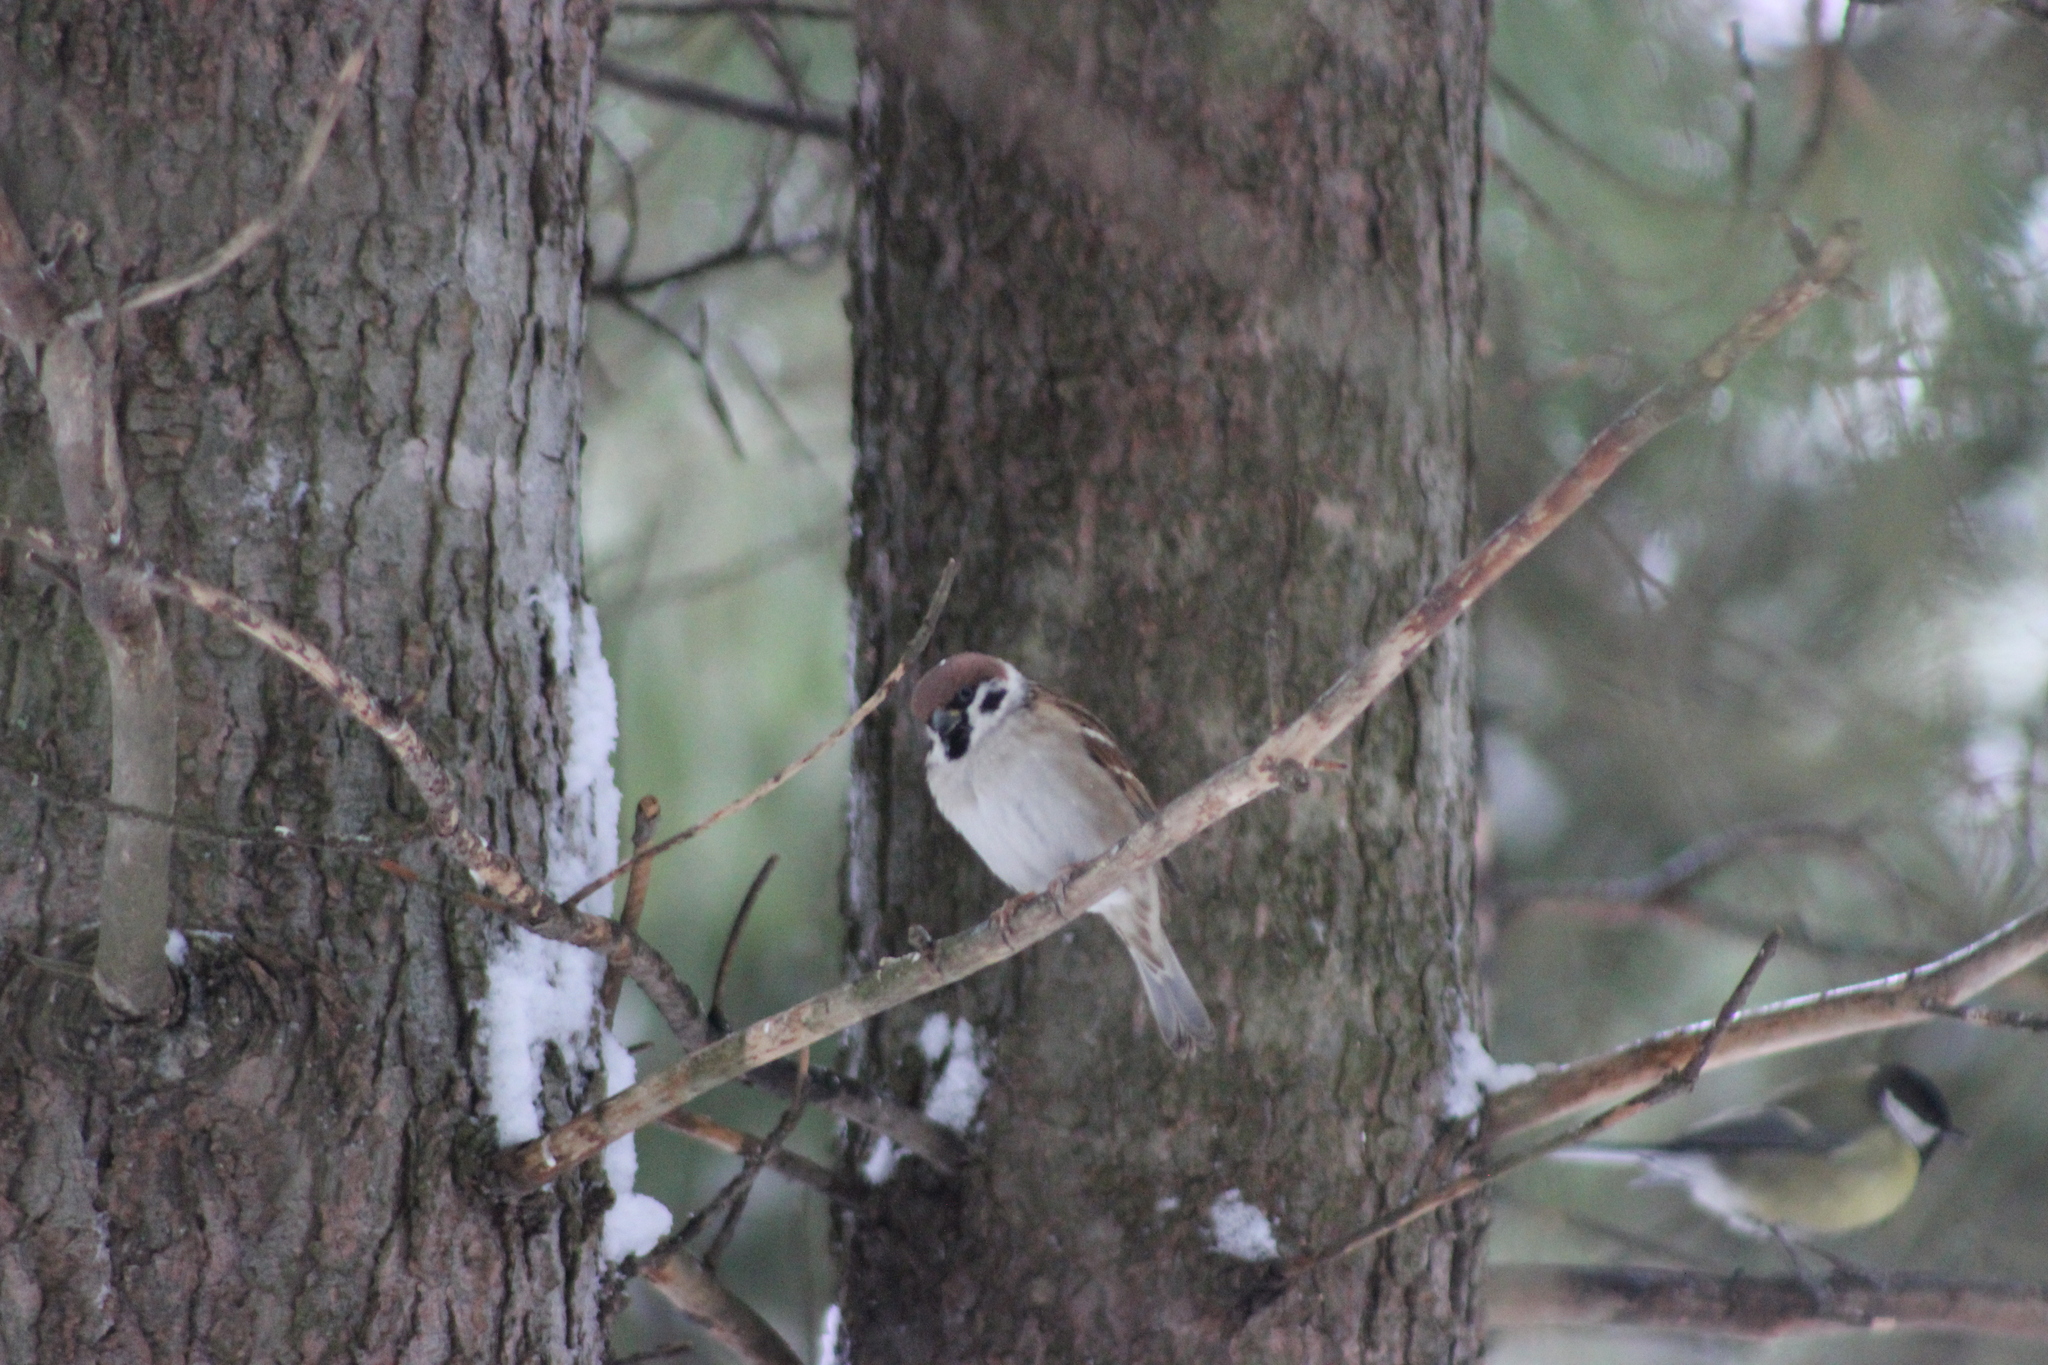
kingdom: Animalia
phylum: Chordata
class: Aves
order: Passeriformes
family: Passeridae
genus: Passer
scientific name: Passer montanus
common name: Eurasian tree sparrow
